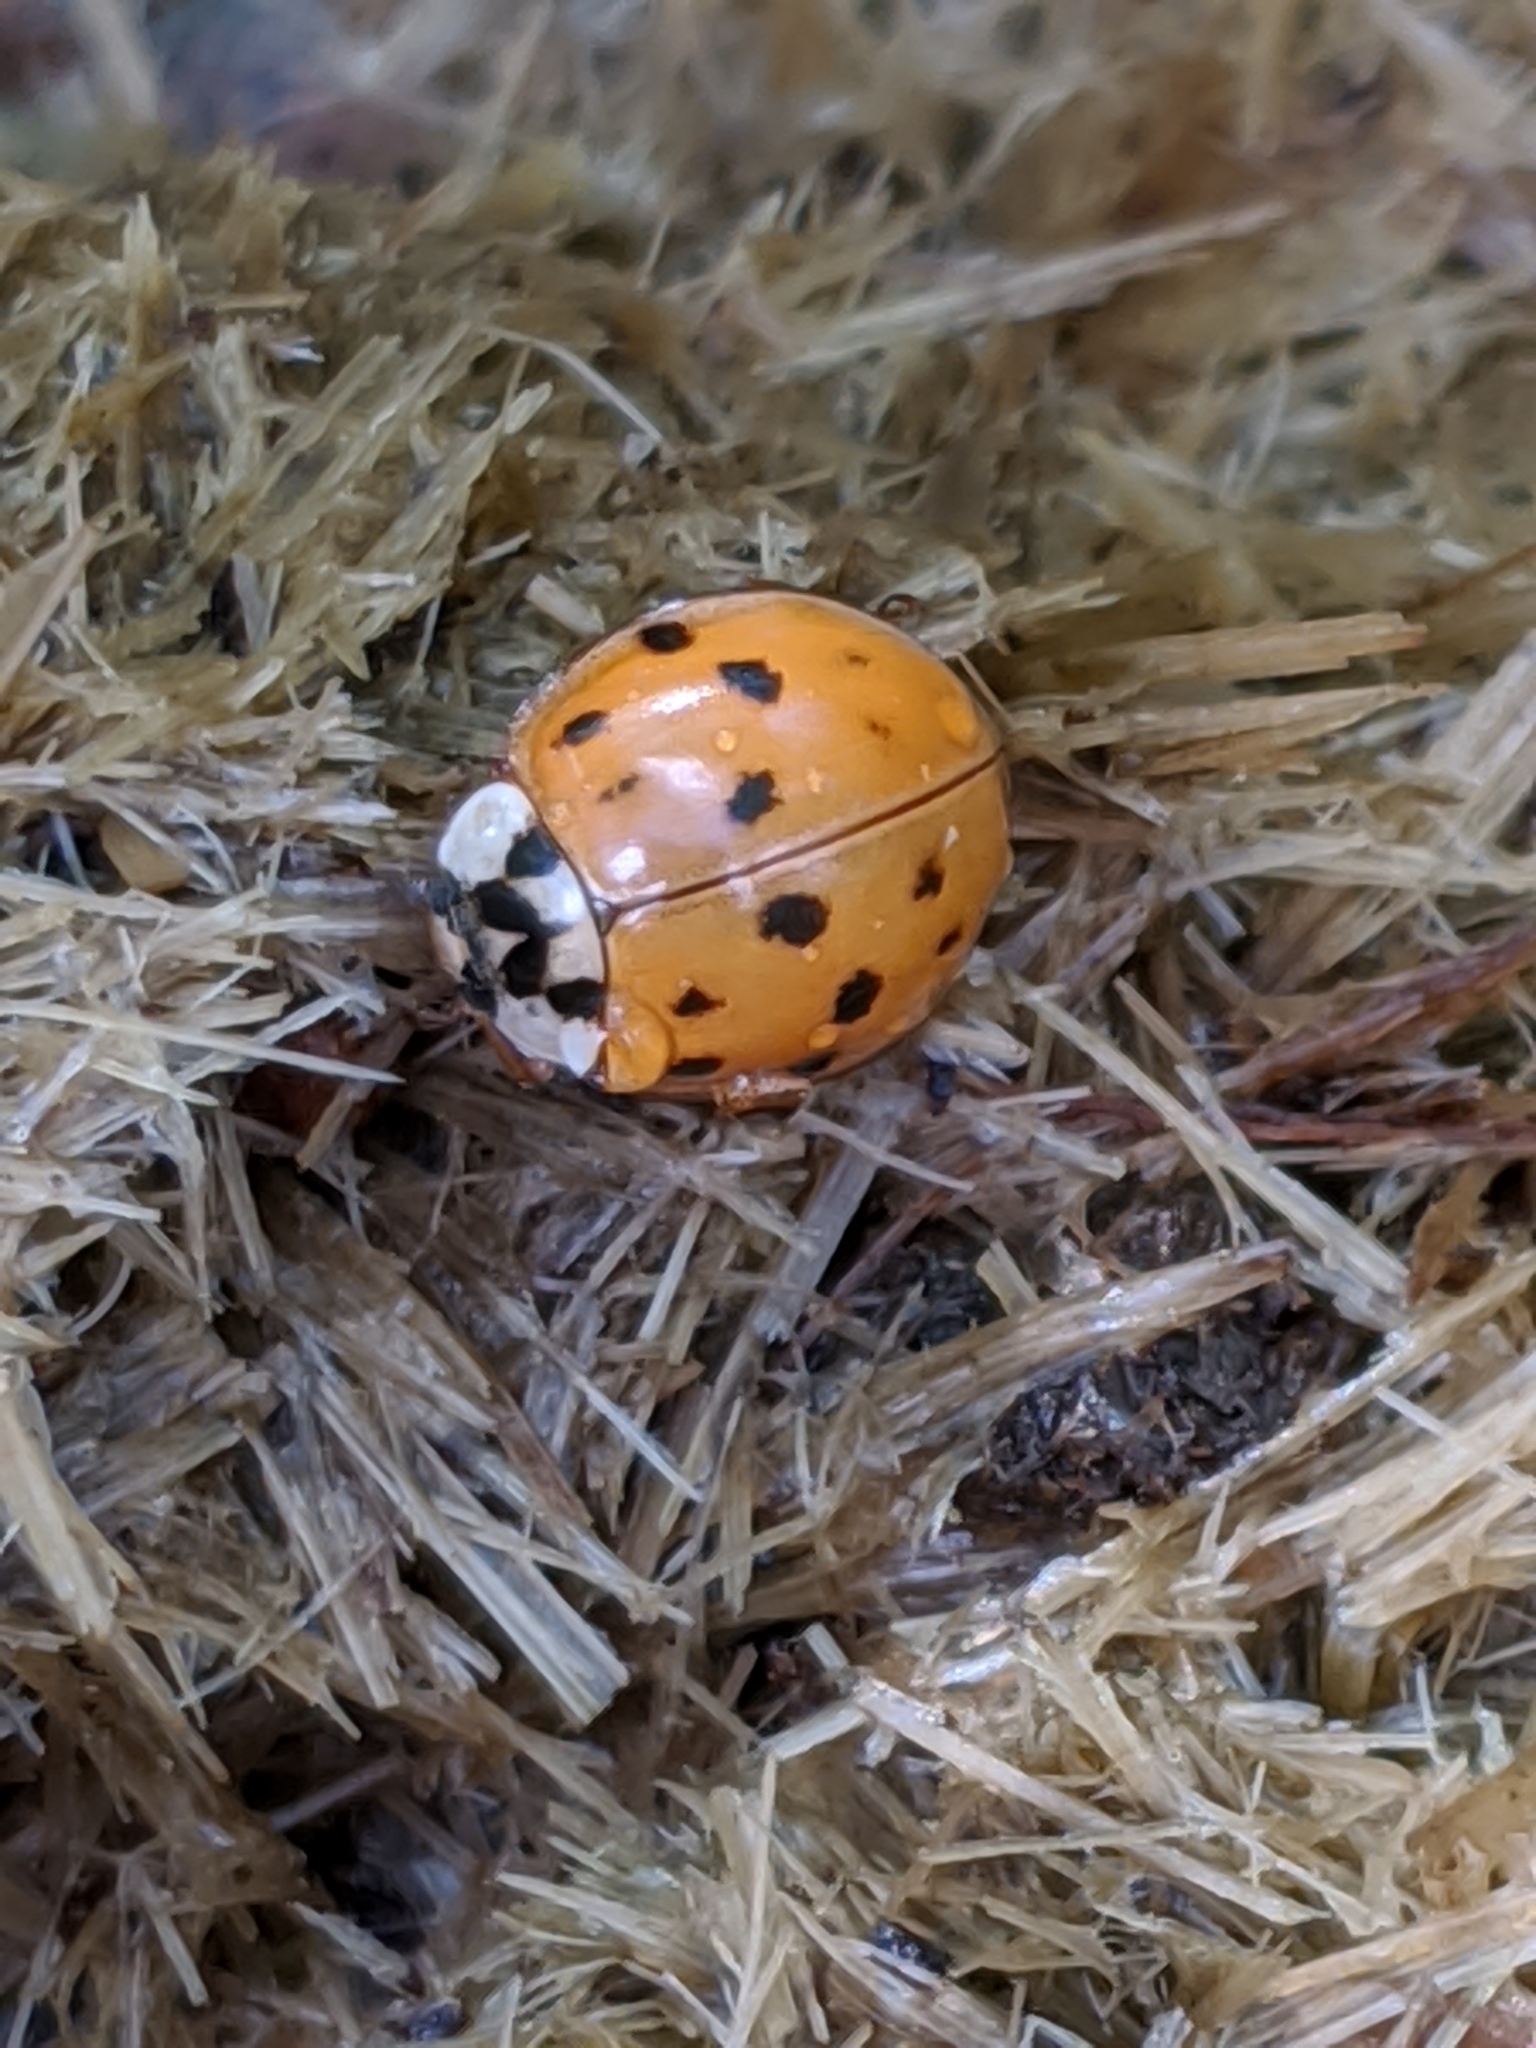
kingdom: Animalia
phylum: Arthropoda
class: Insecta
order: Coleoptera
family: Coccinellidae
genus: Harmonia
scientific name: Harmonia axyridis
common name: Harlequin ladybird
